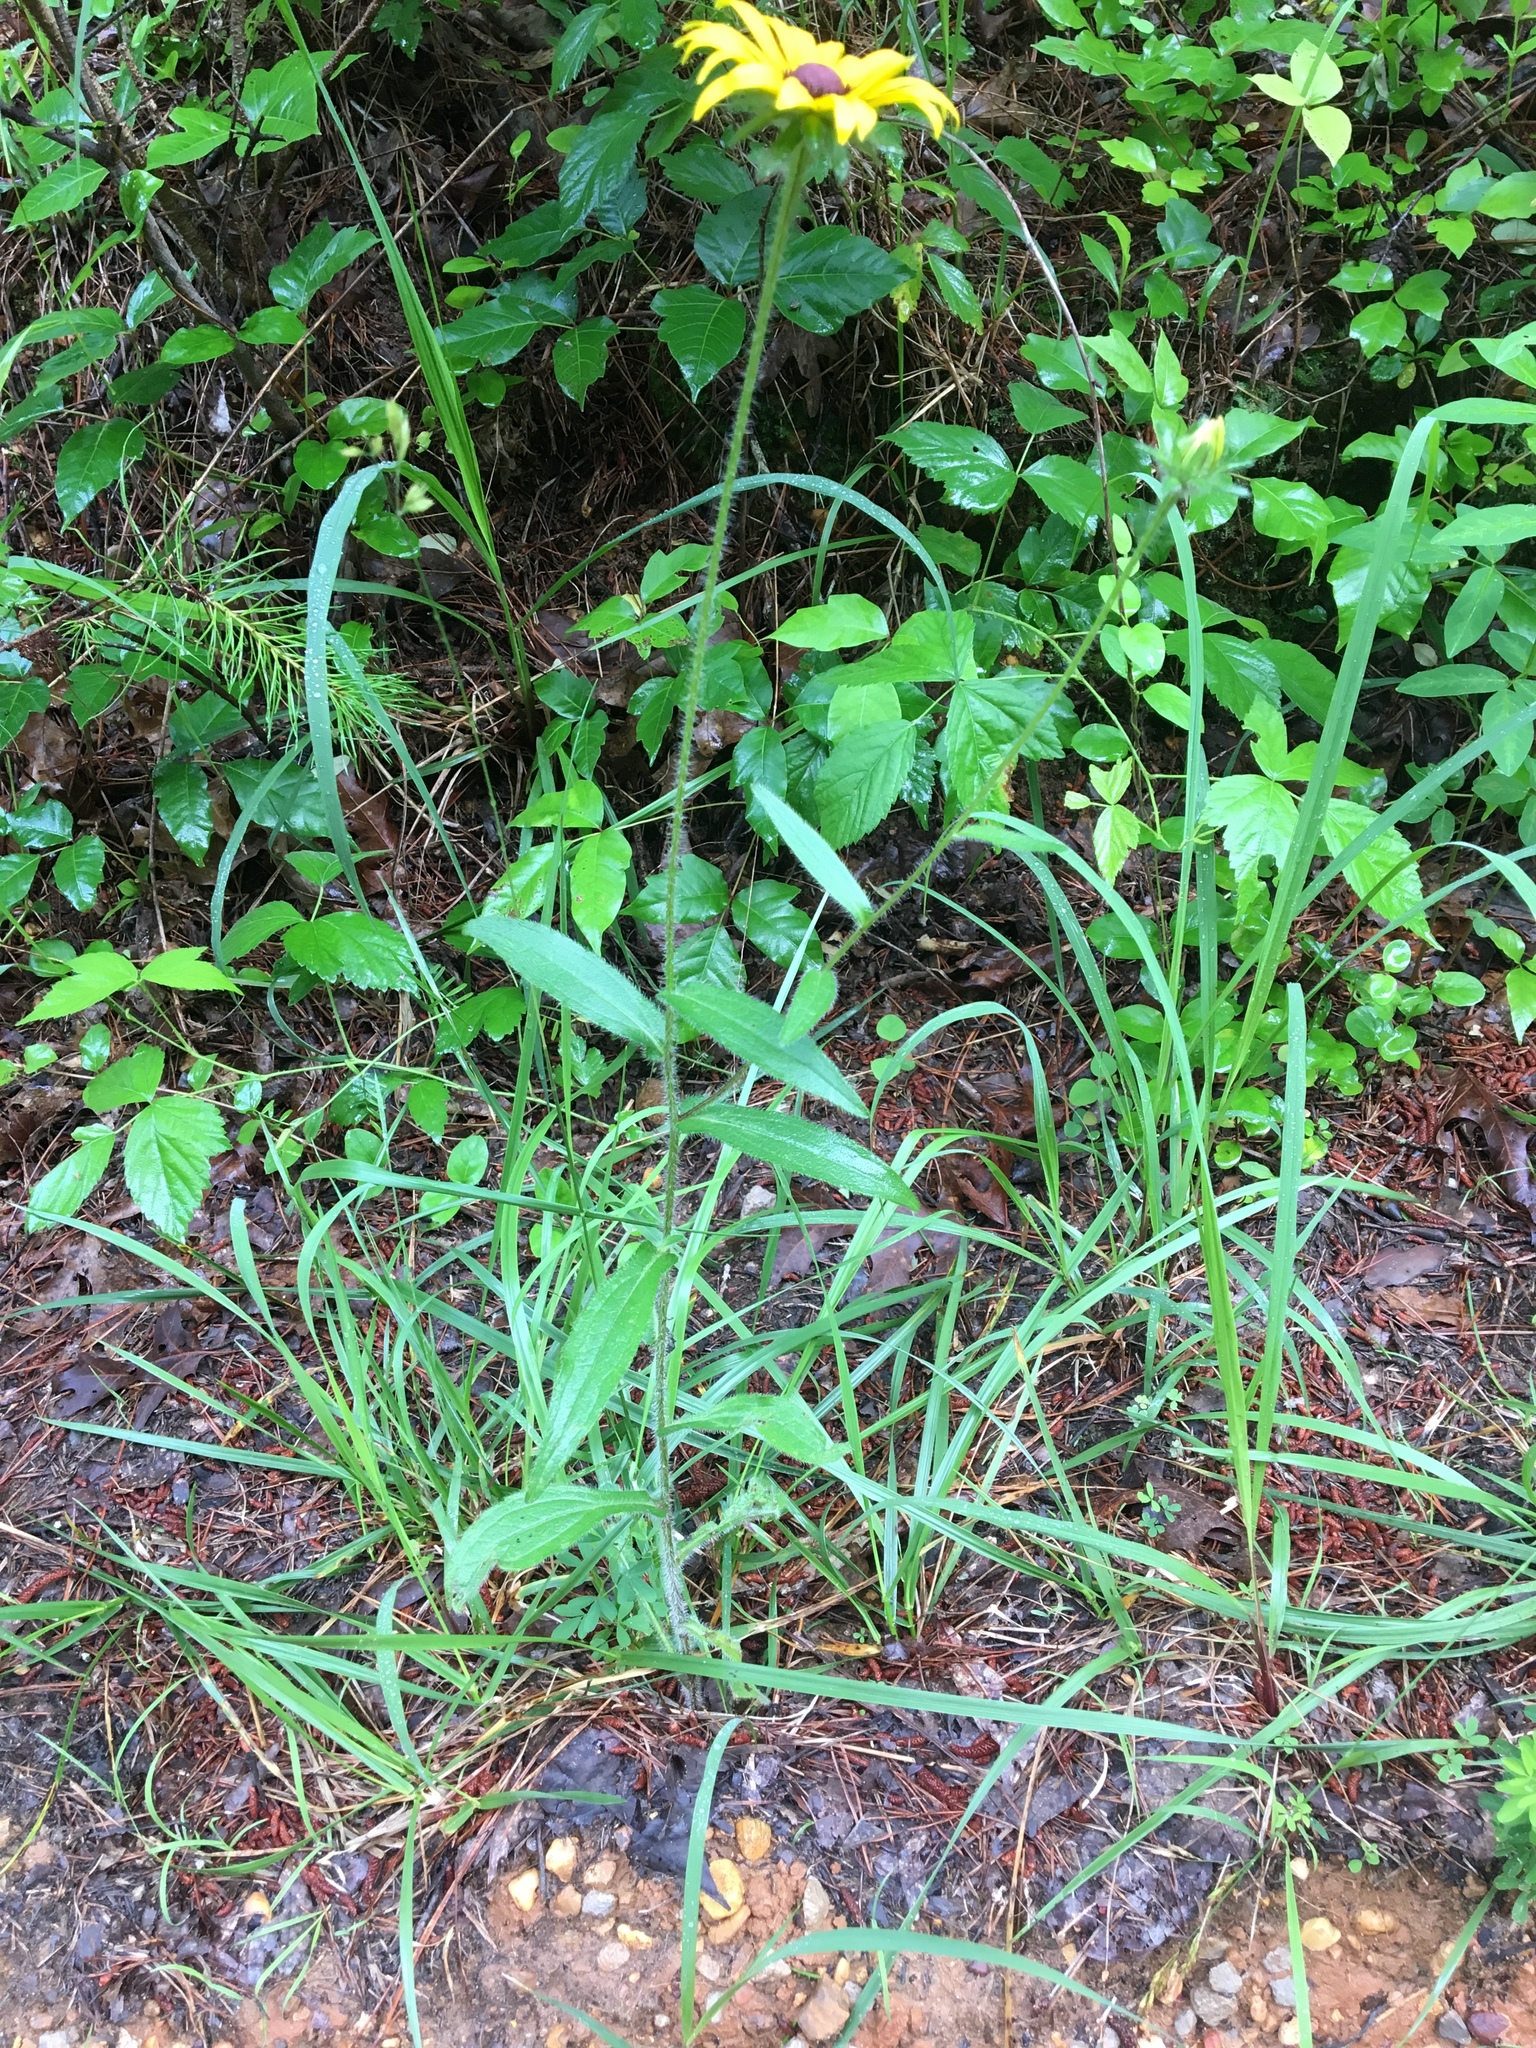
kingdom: Plantae
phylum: Tracheophyta
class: Magnoliopsida
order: Asterales
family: Asteraceae
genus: Rudbeckia
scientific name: Rudbeckia hirta
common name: Black-eyed-susan
